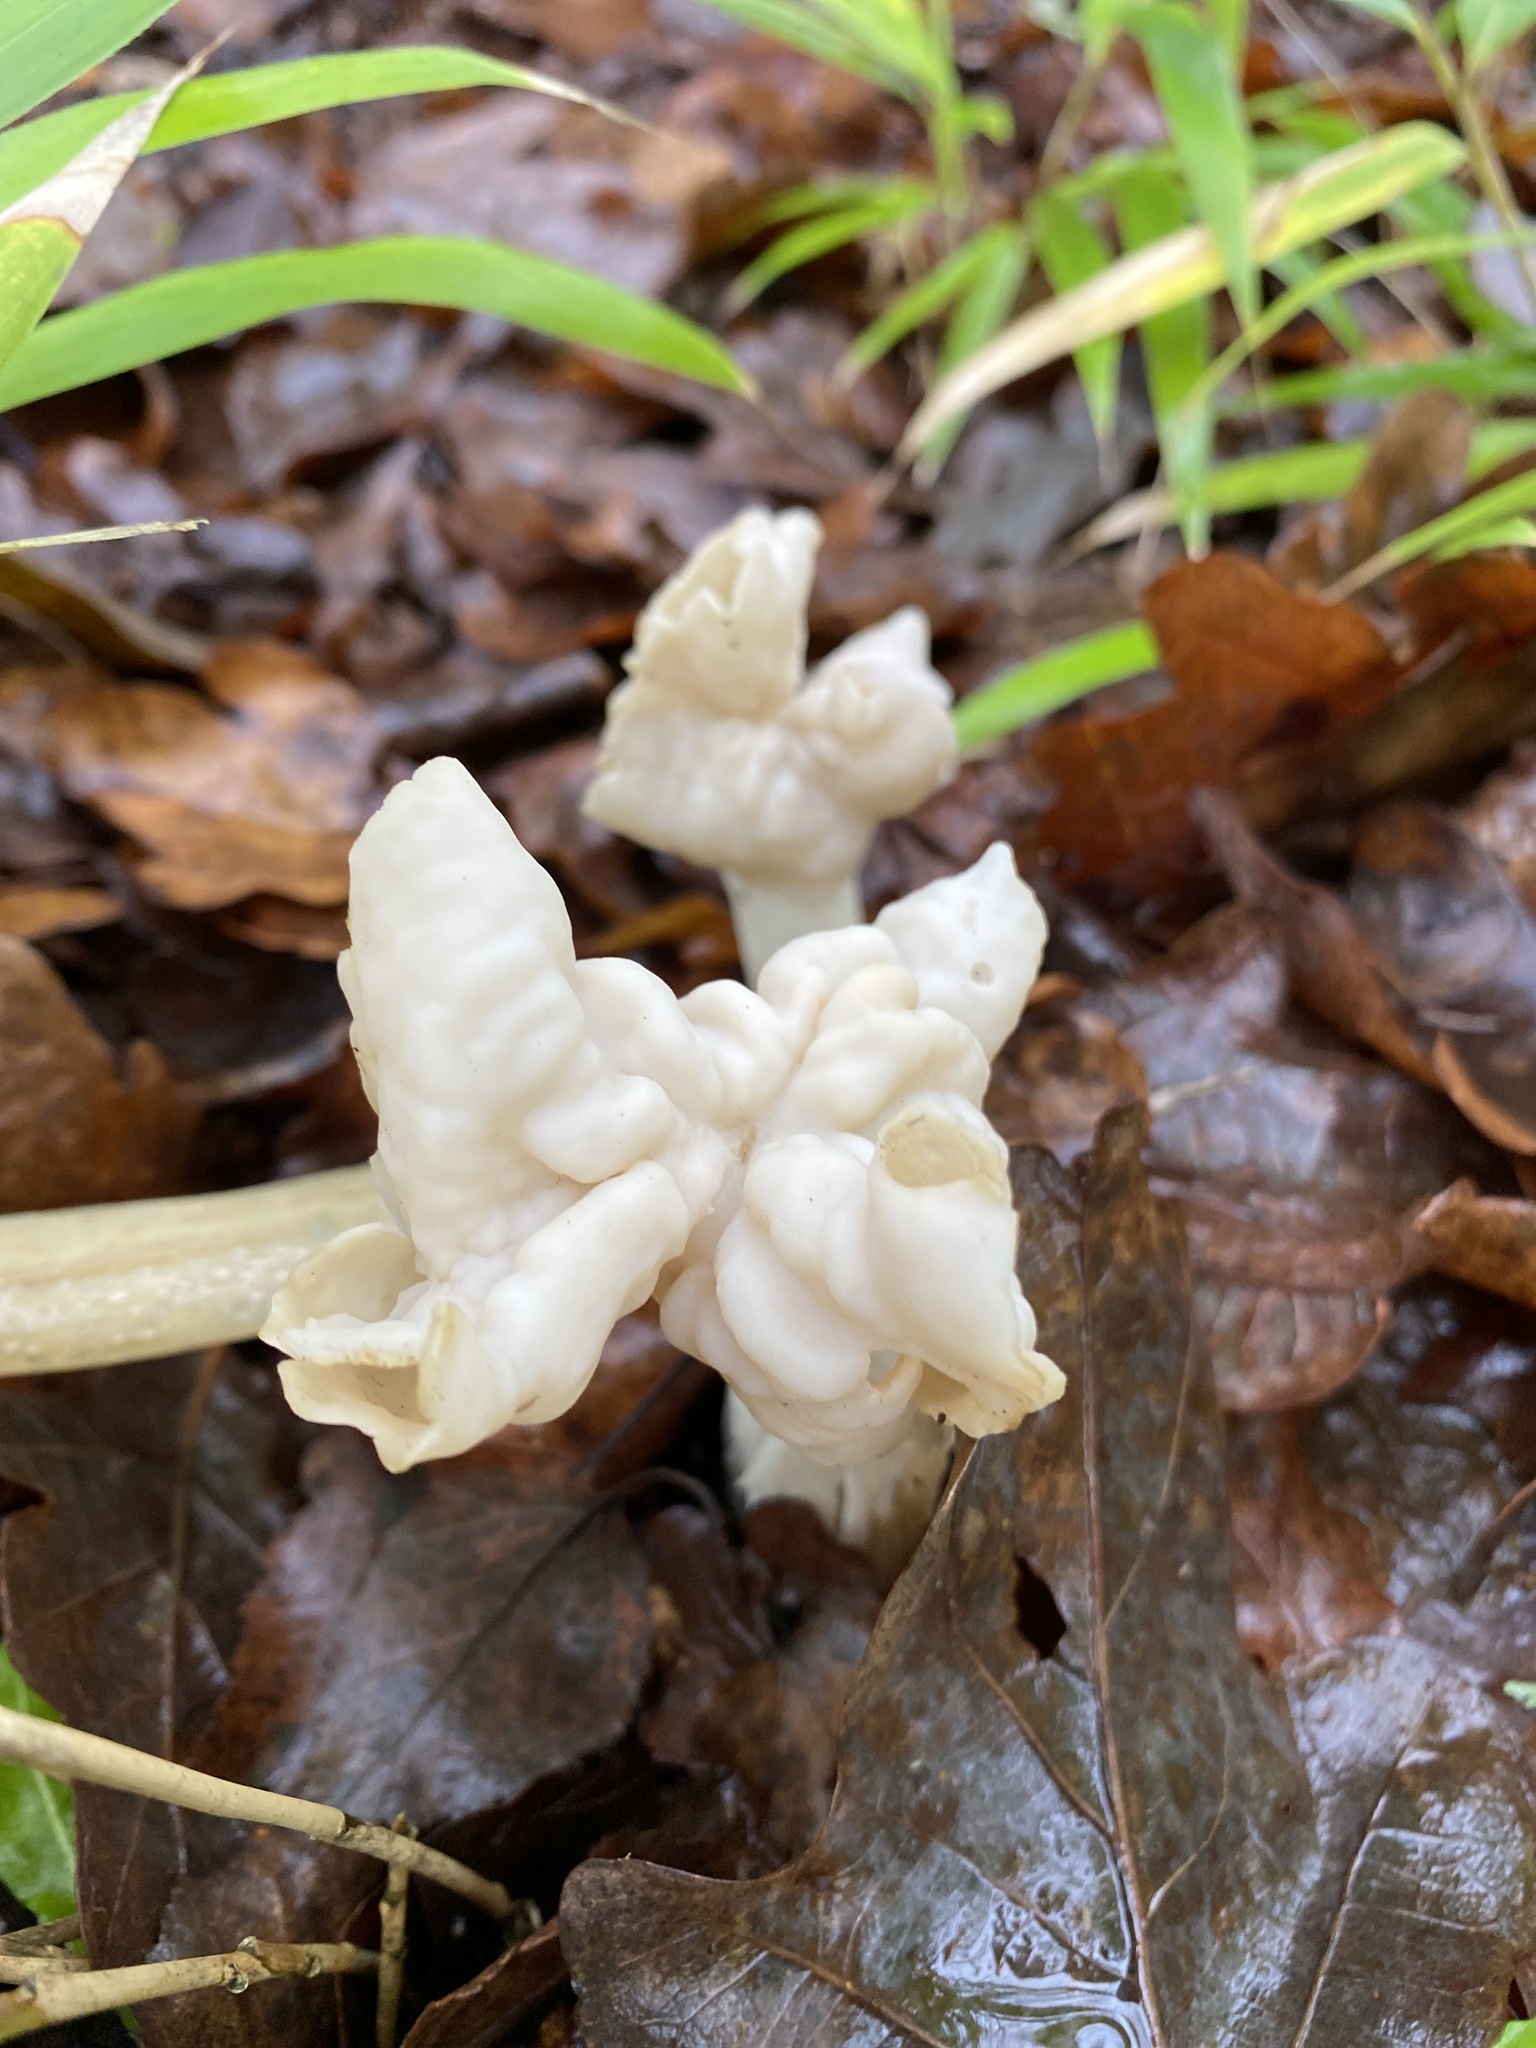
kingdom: Fungi
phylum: Ascomycota
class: Pezizomycetes
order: Pezizales
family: Helvellaceae
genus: Helvella
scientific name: Helvella crispa
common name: White saddle
